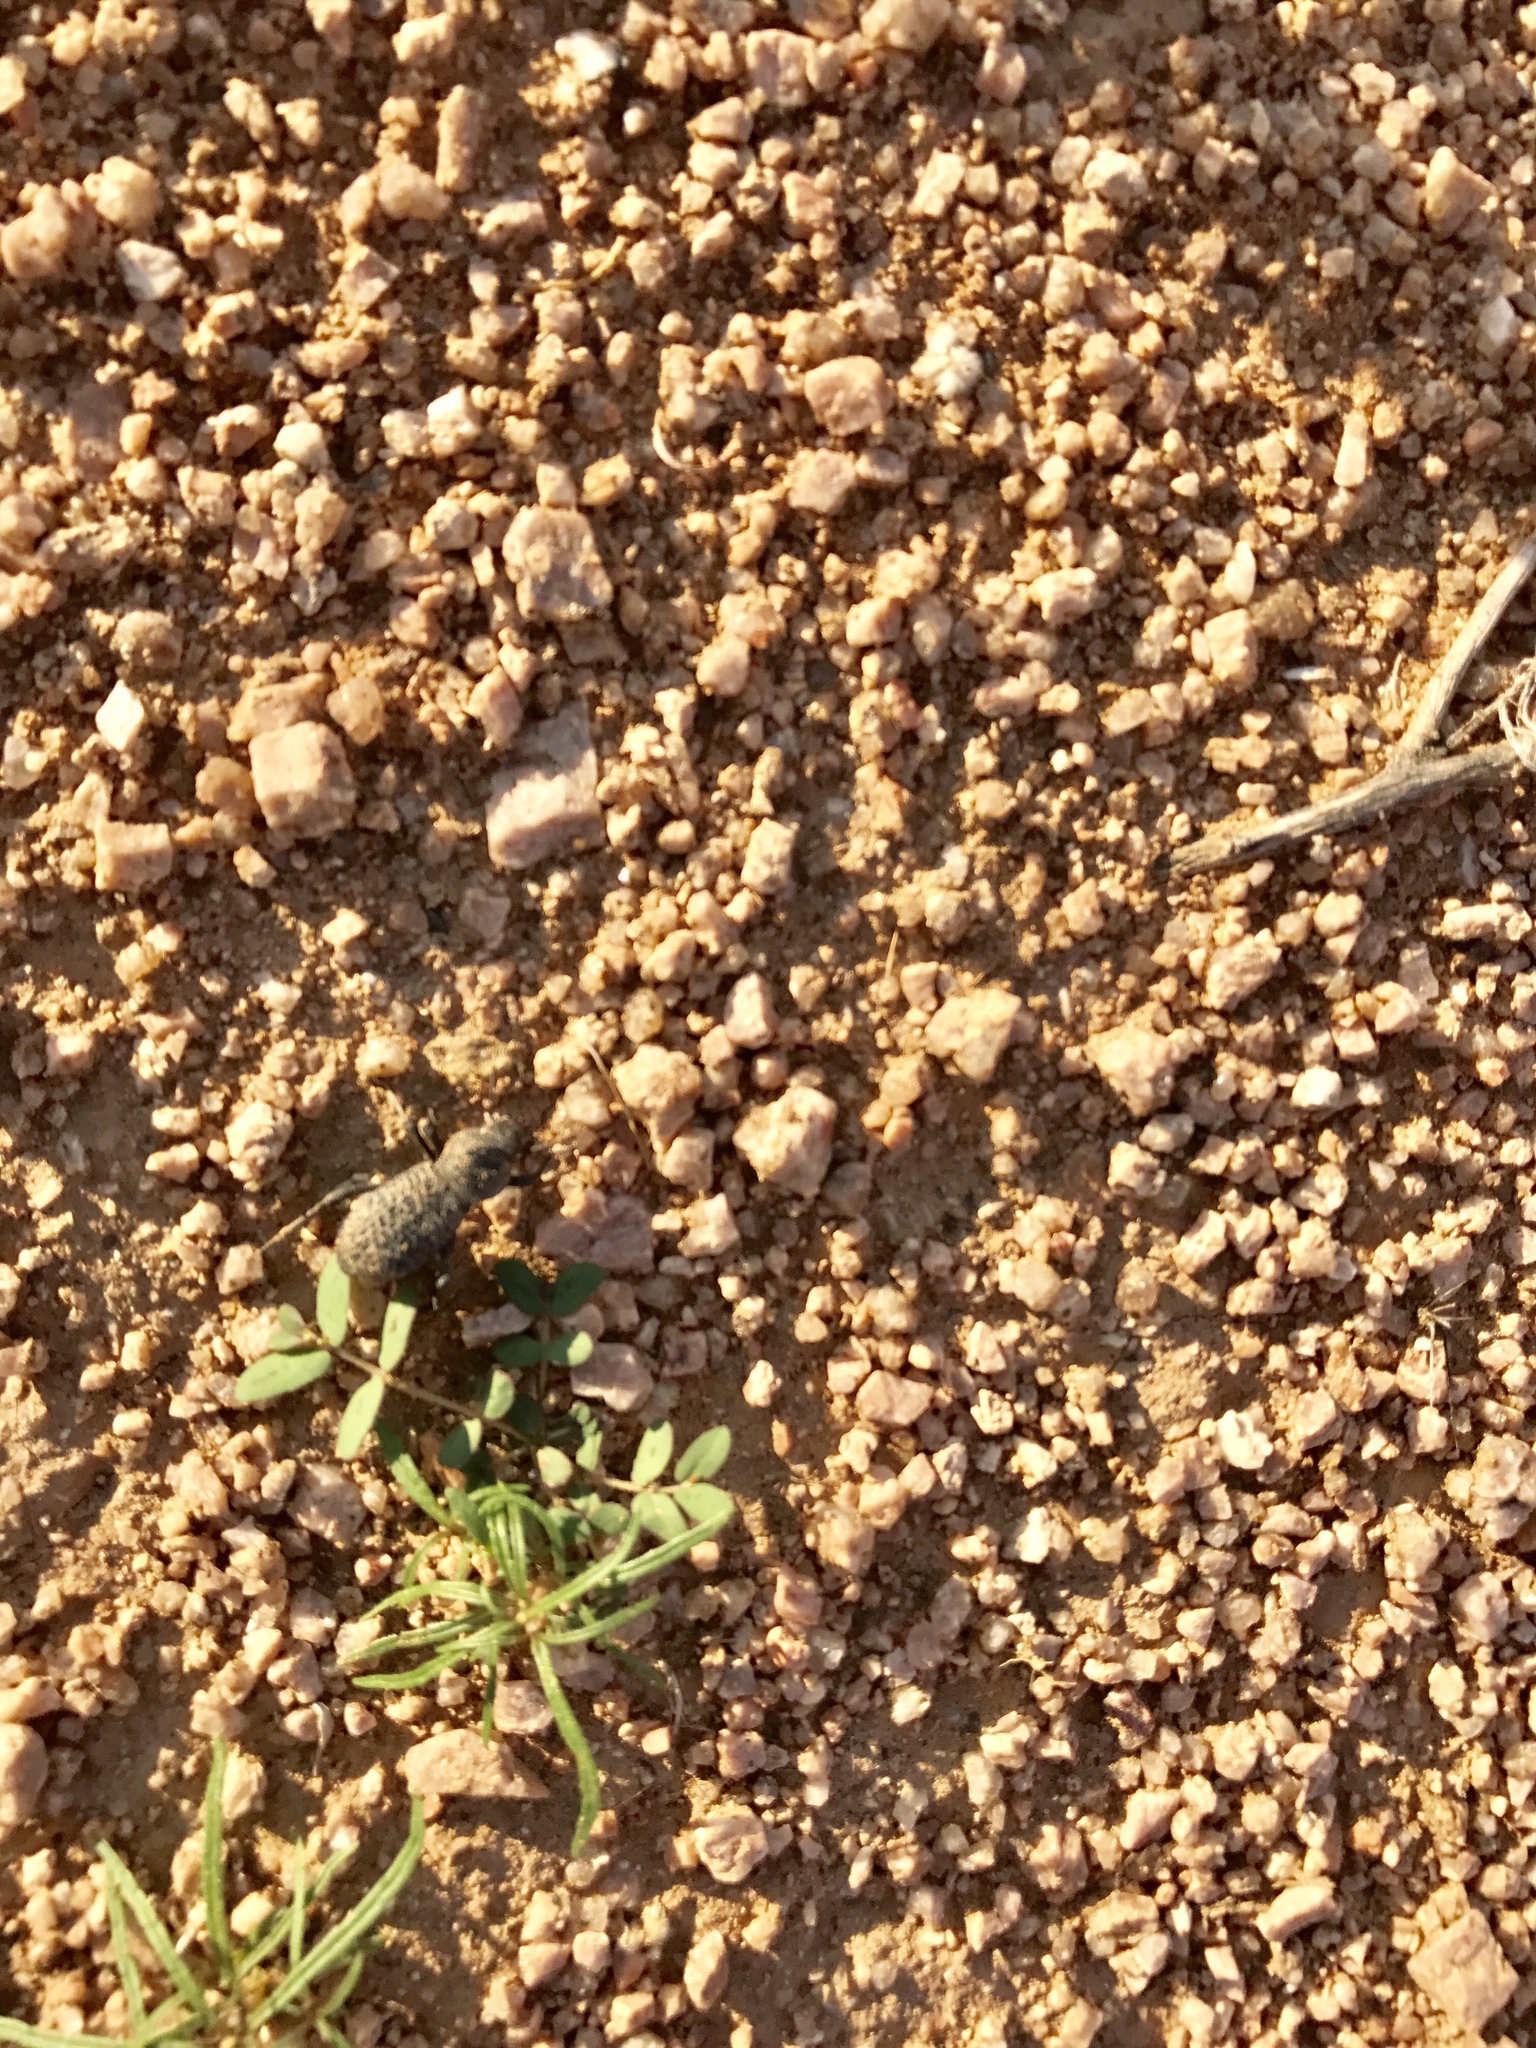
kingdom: Animalia
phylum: Arthropoda
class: Insecta
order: Coleoptera
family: Tenebrionidae
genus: Cryptoglossa
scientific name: Cryptoglossa variolosa
